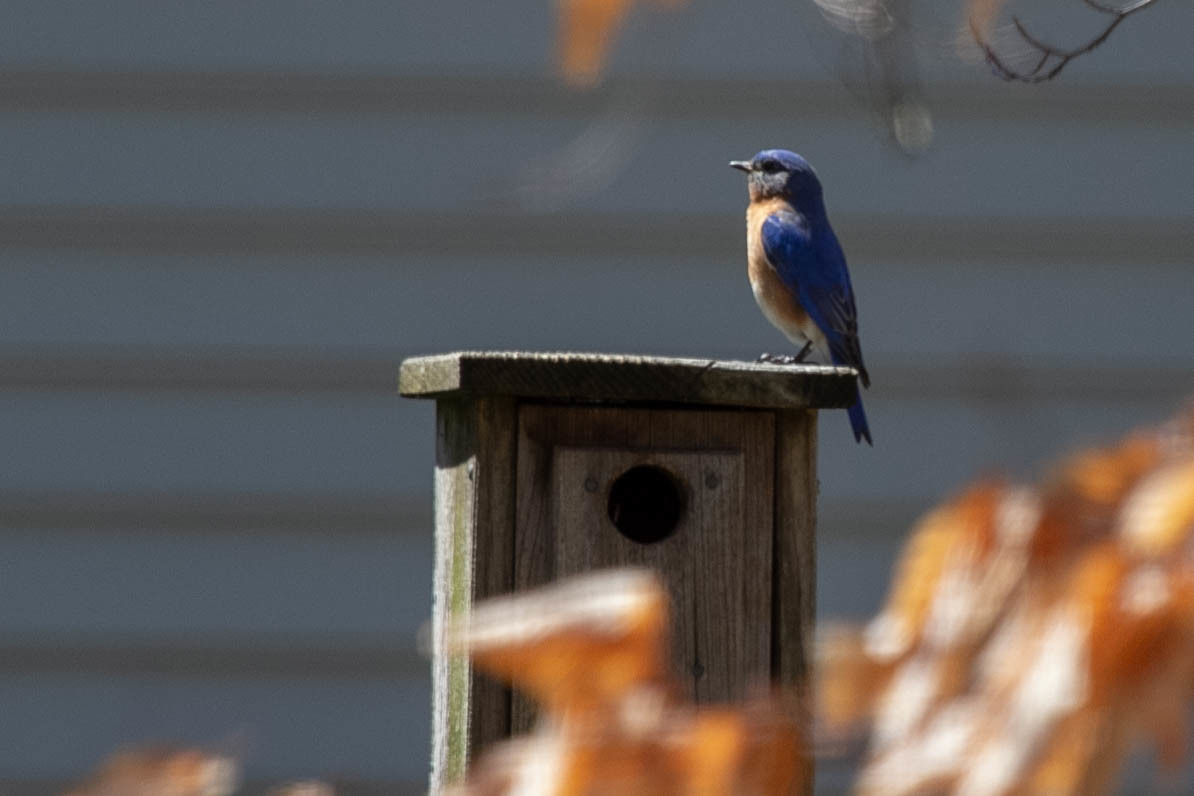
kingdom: Animalia
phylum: Chordata
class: Aves
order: Passeriformes
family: Turdidae
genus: Sialia
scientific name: Sialia sialis
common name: Eastern bluebird
